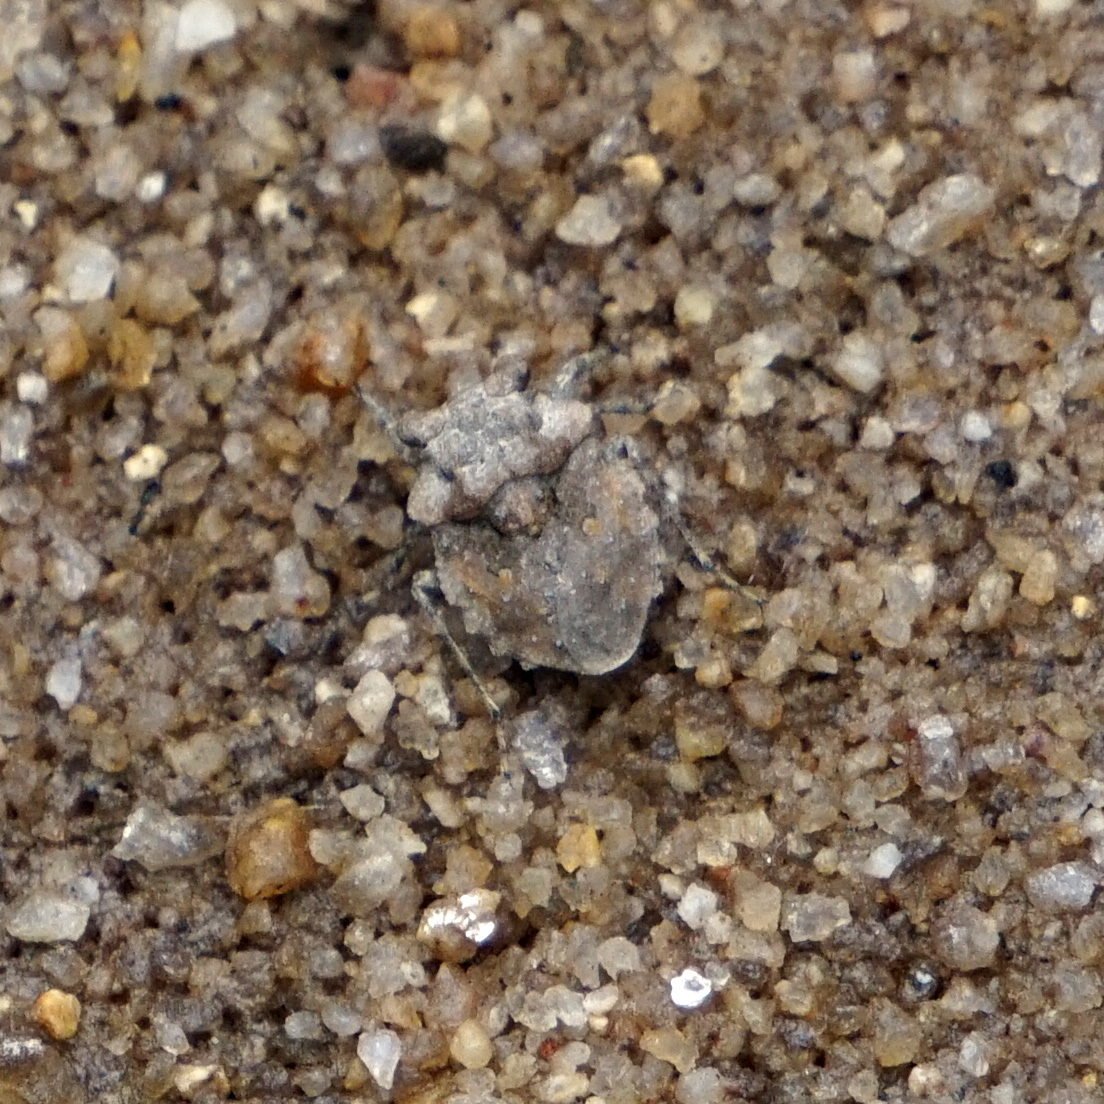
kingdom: Animalia
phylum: Arthropoda
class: Insecta
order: Hemiptera
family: Gelastocoridae
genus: Gelastocoris
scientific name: Gelastocoris oculatus
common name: Toad bug
